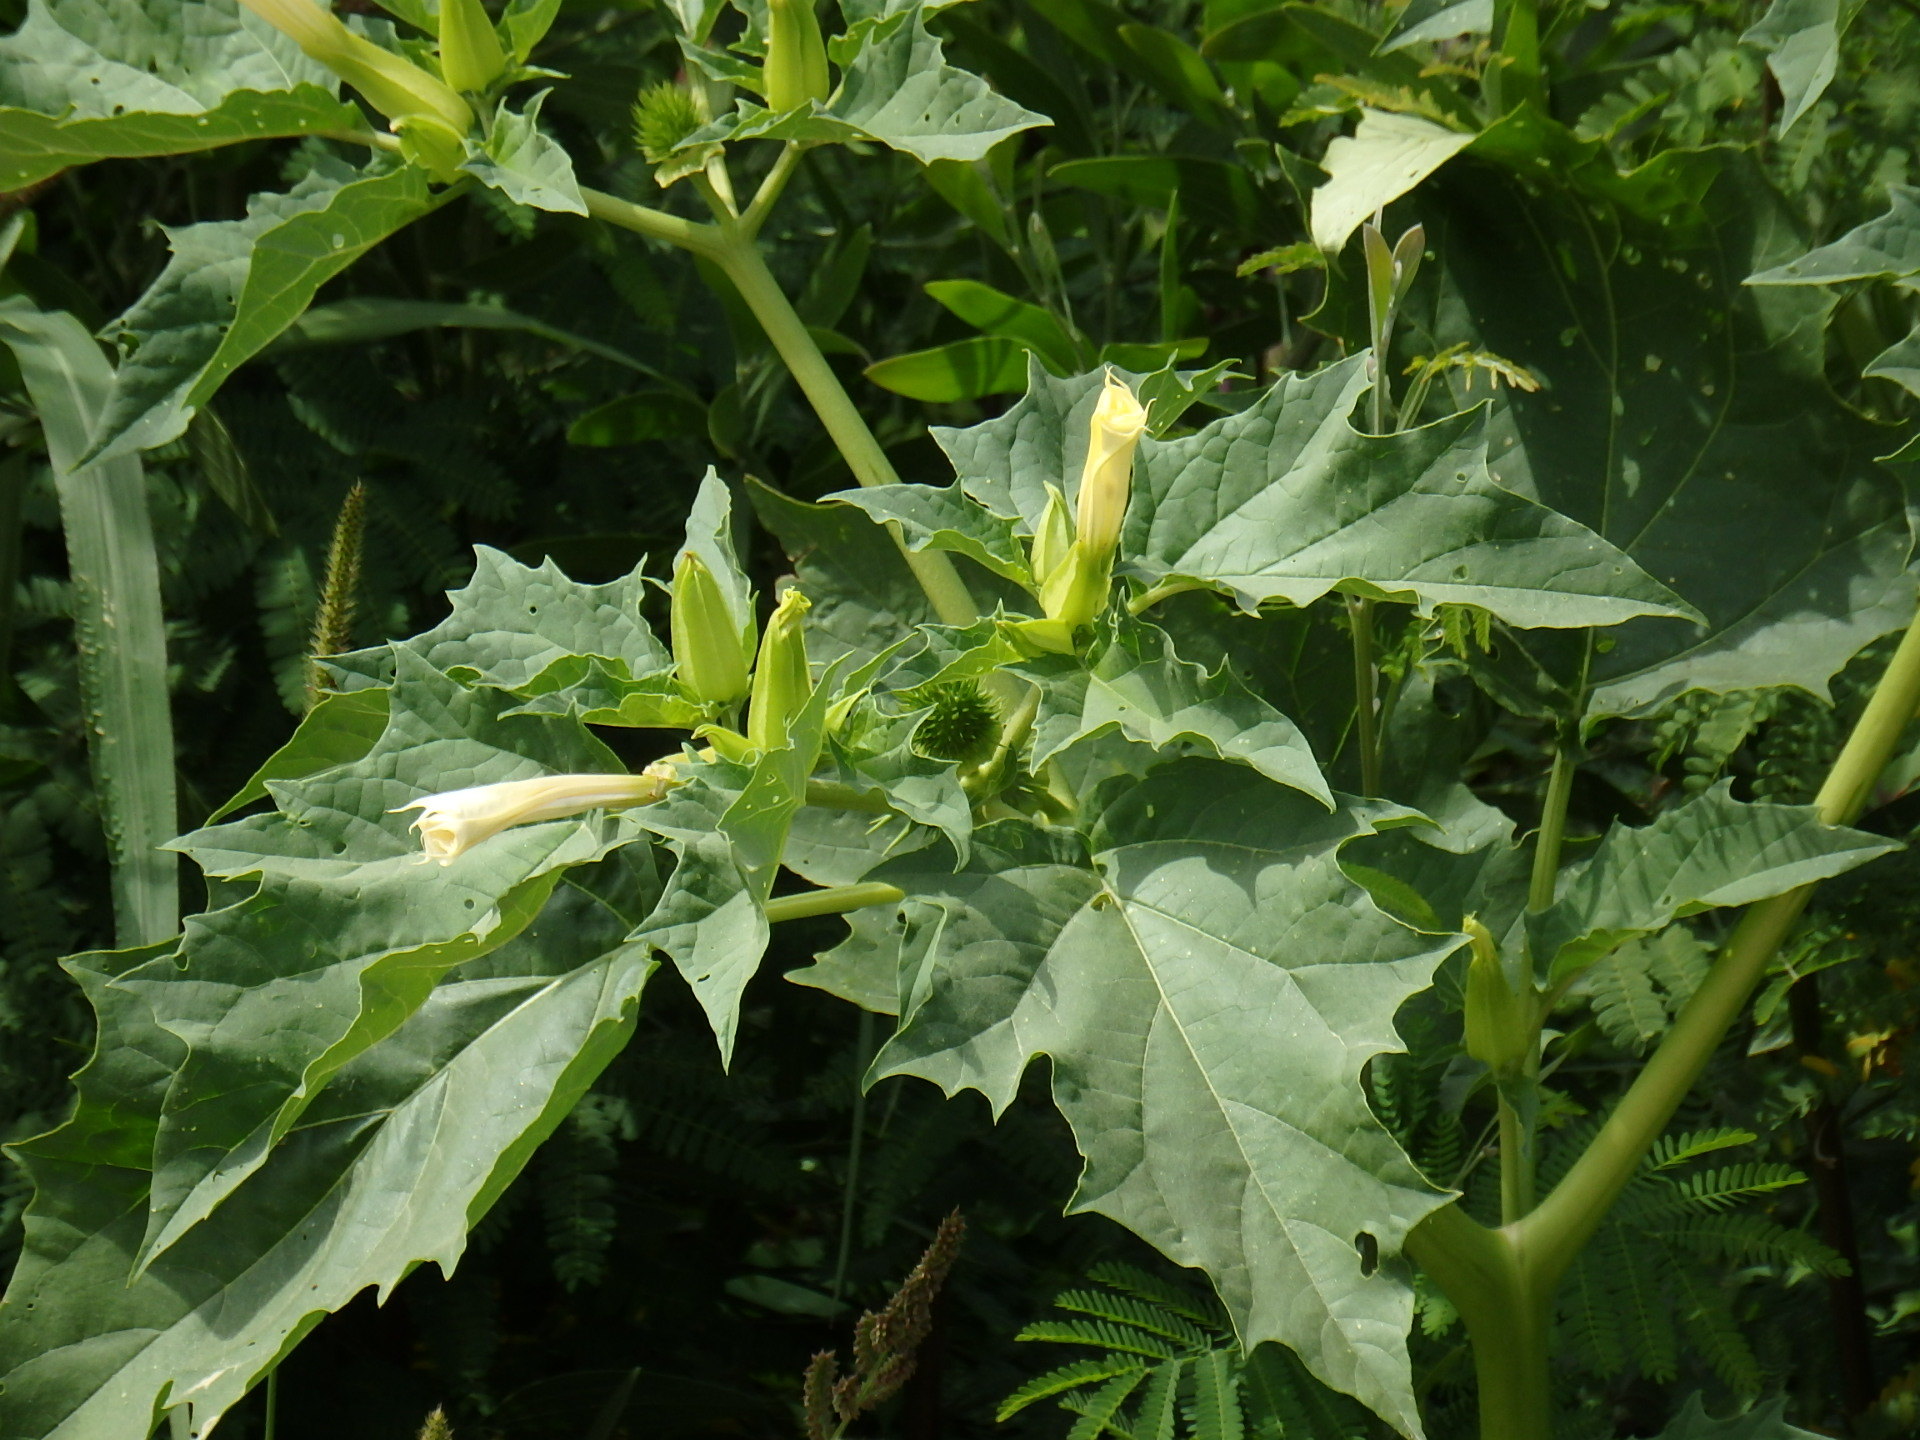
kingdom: Plantae
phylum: Tracheophyta
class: Magnoliopsida
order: Solanales
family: Solanaceae
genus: Datura
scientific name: Datura stramonium
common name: Thorn-apple
